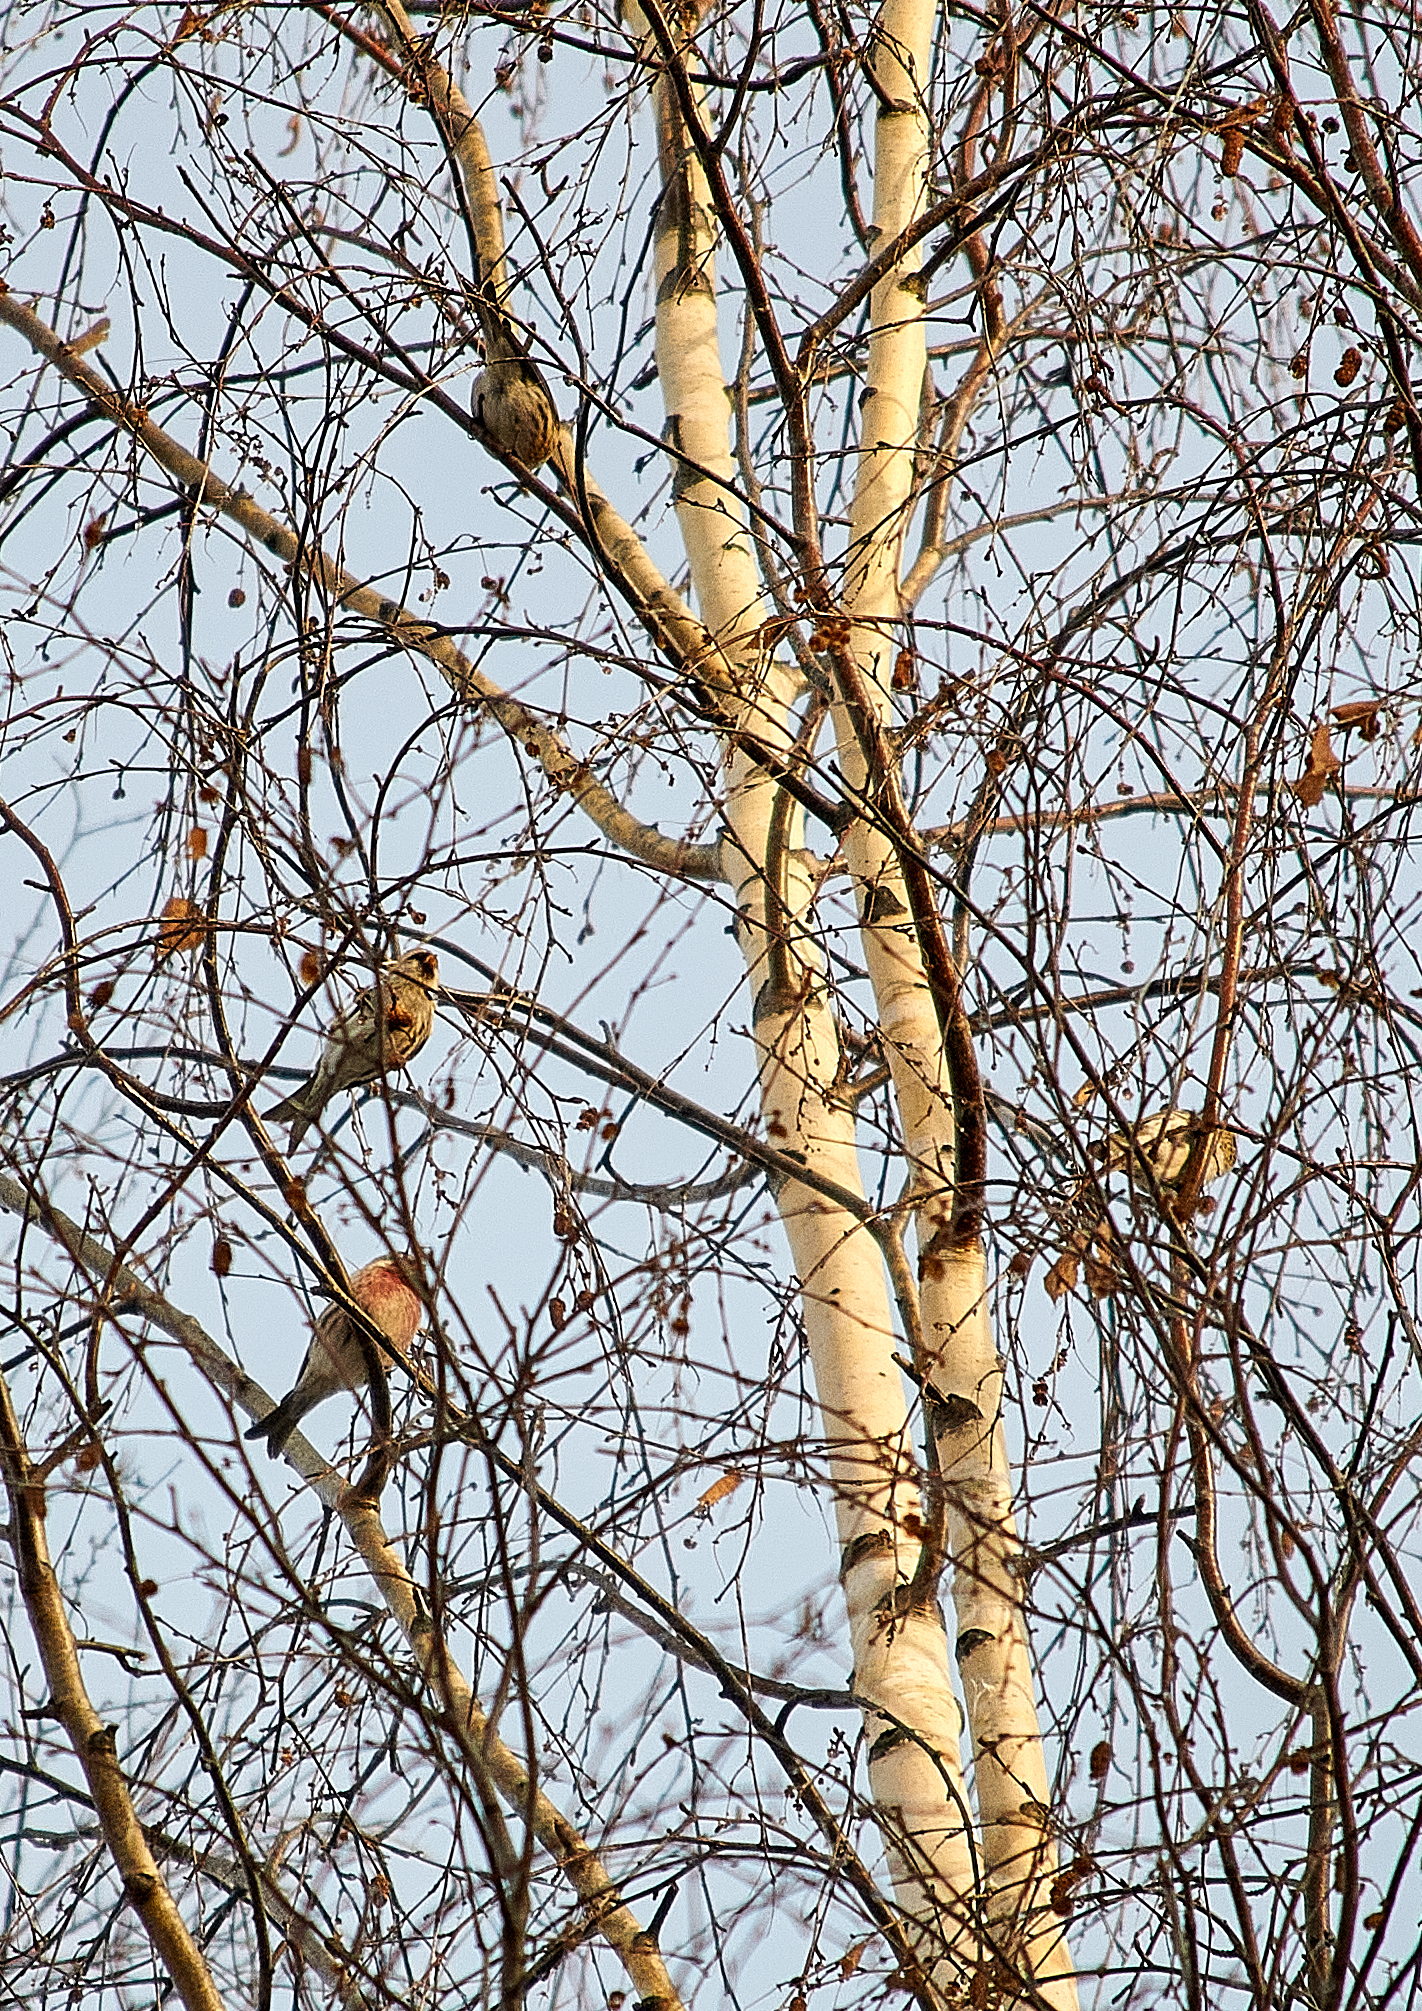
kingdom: Animalia
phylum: Chordata
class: Aves
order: Passeriformes
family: Fringillidae
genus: Acanthis
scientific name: Acanthis flammea
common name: Common redpoll
